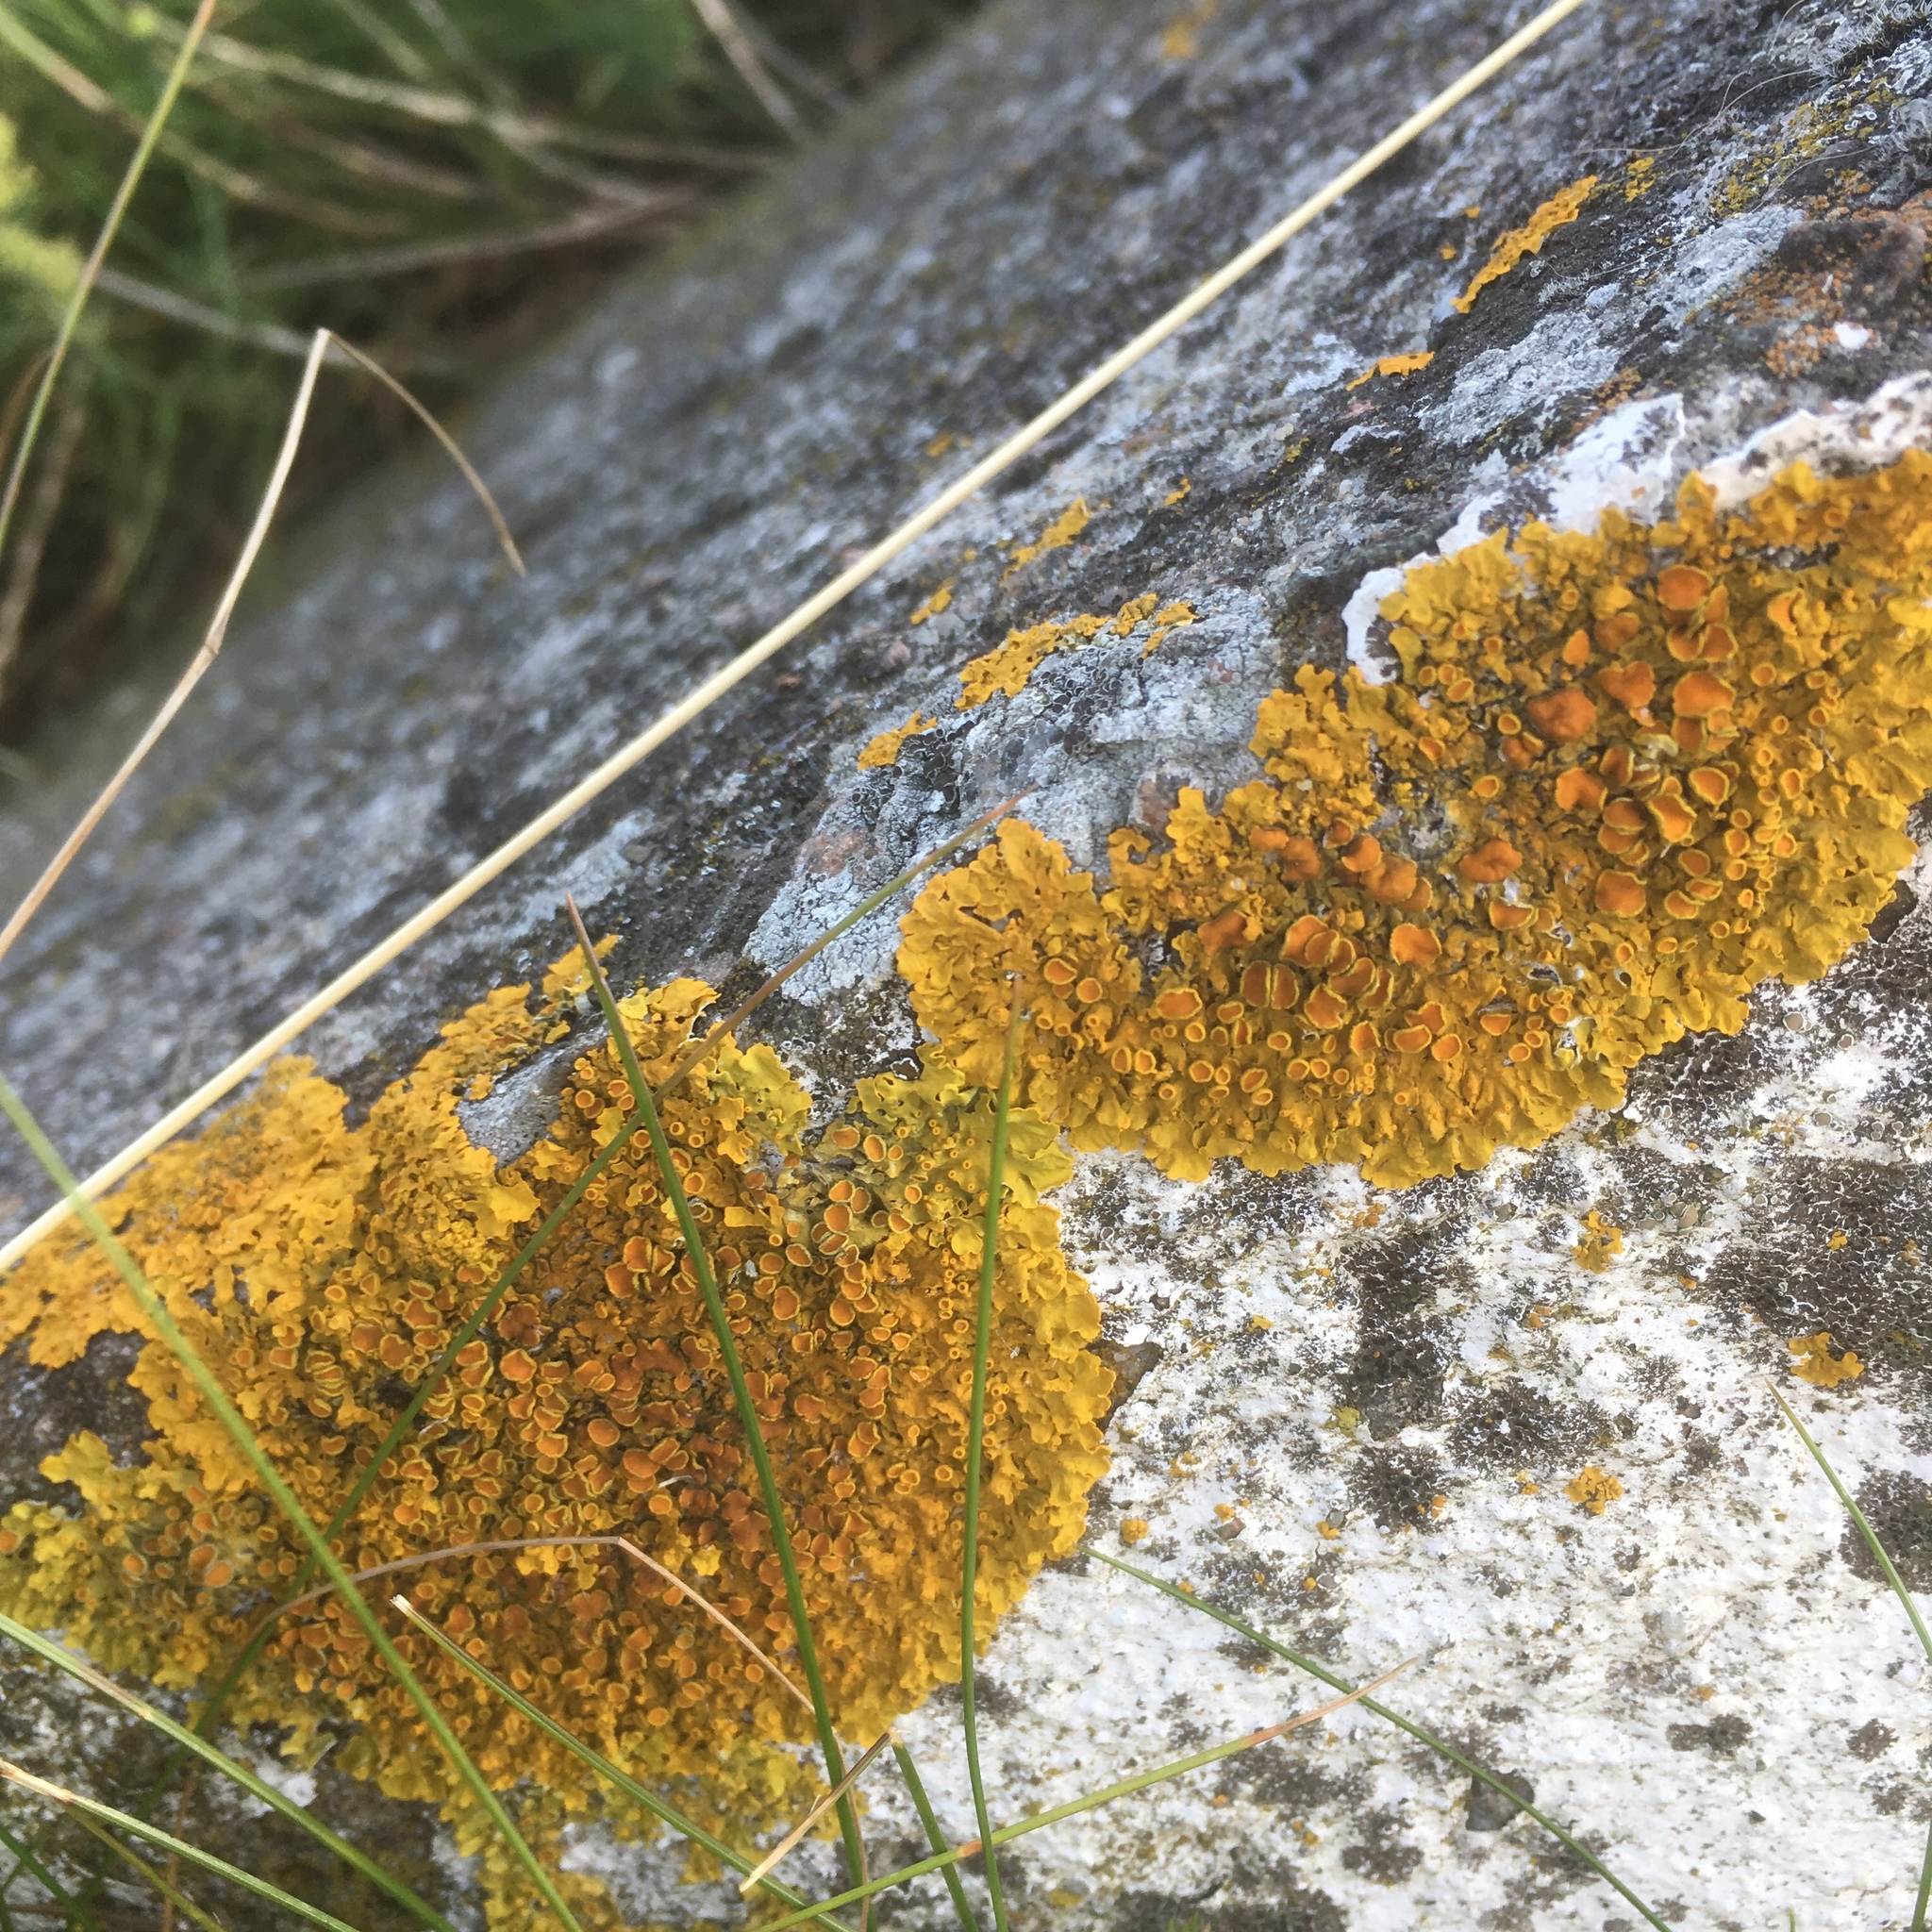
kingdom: Fungi
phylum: Ascomycota
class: Lecanoromycetes
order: Teloschistales
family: Teloschistaceae
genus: Xanthoria
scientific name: Xanthoria parietina
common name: Common orange lichen
